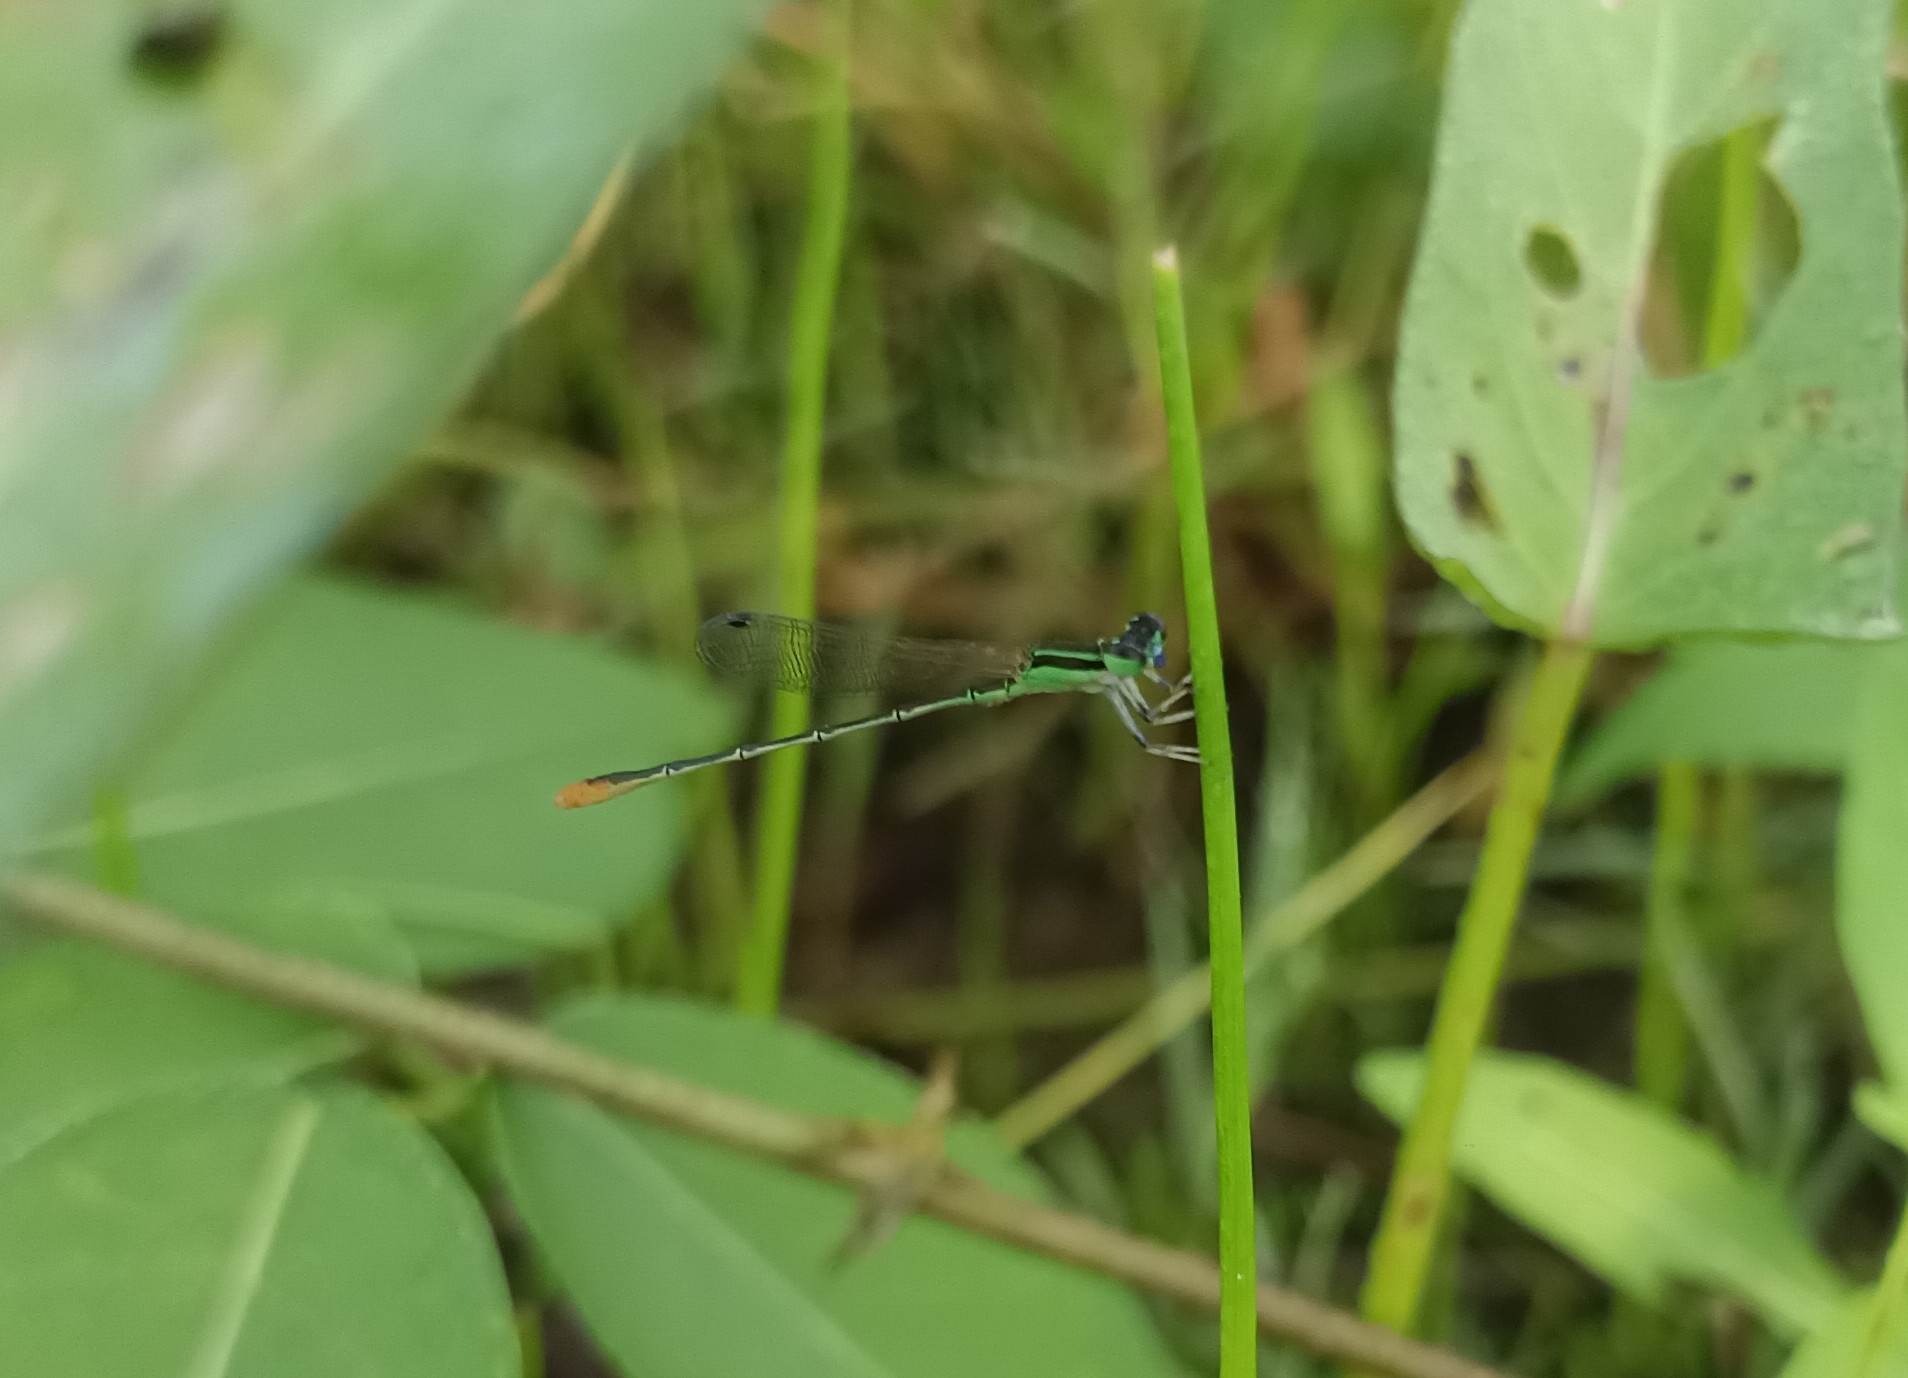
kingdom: Animalia
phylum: Arthropoda
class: Insecta
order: Odonata
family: Coenagrionidae
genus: Agriocnemis
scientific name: Agriocnemis pygmaea
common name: Pygmy wisp
